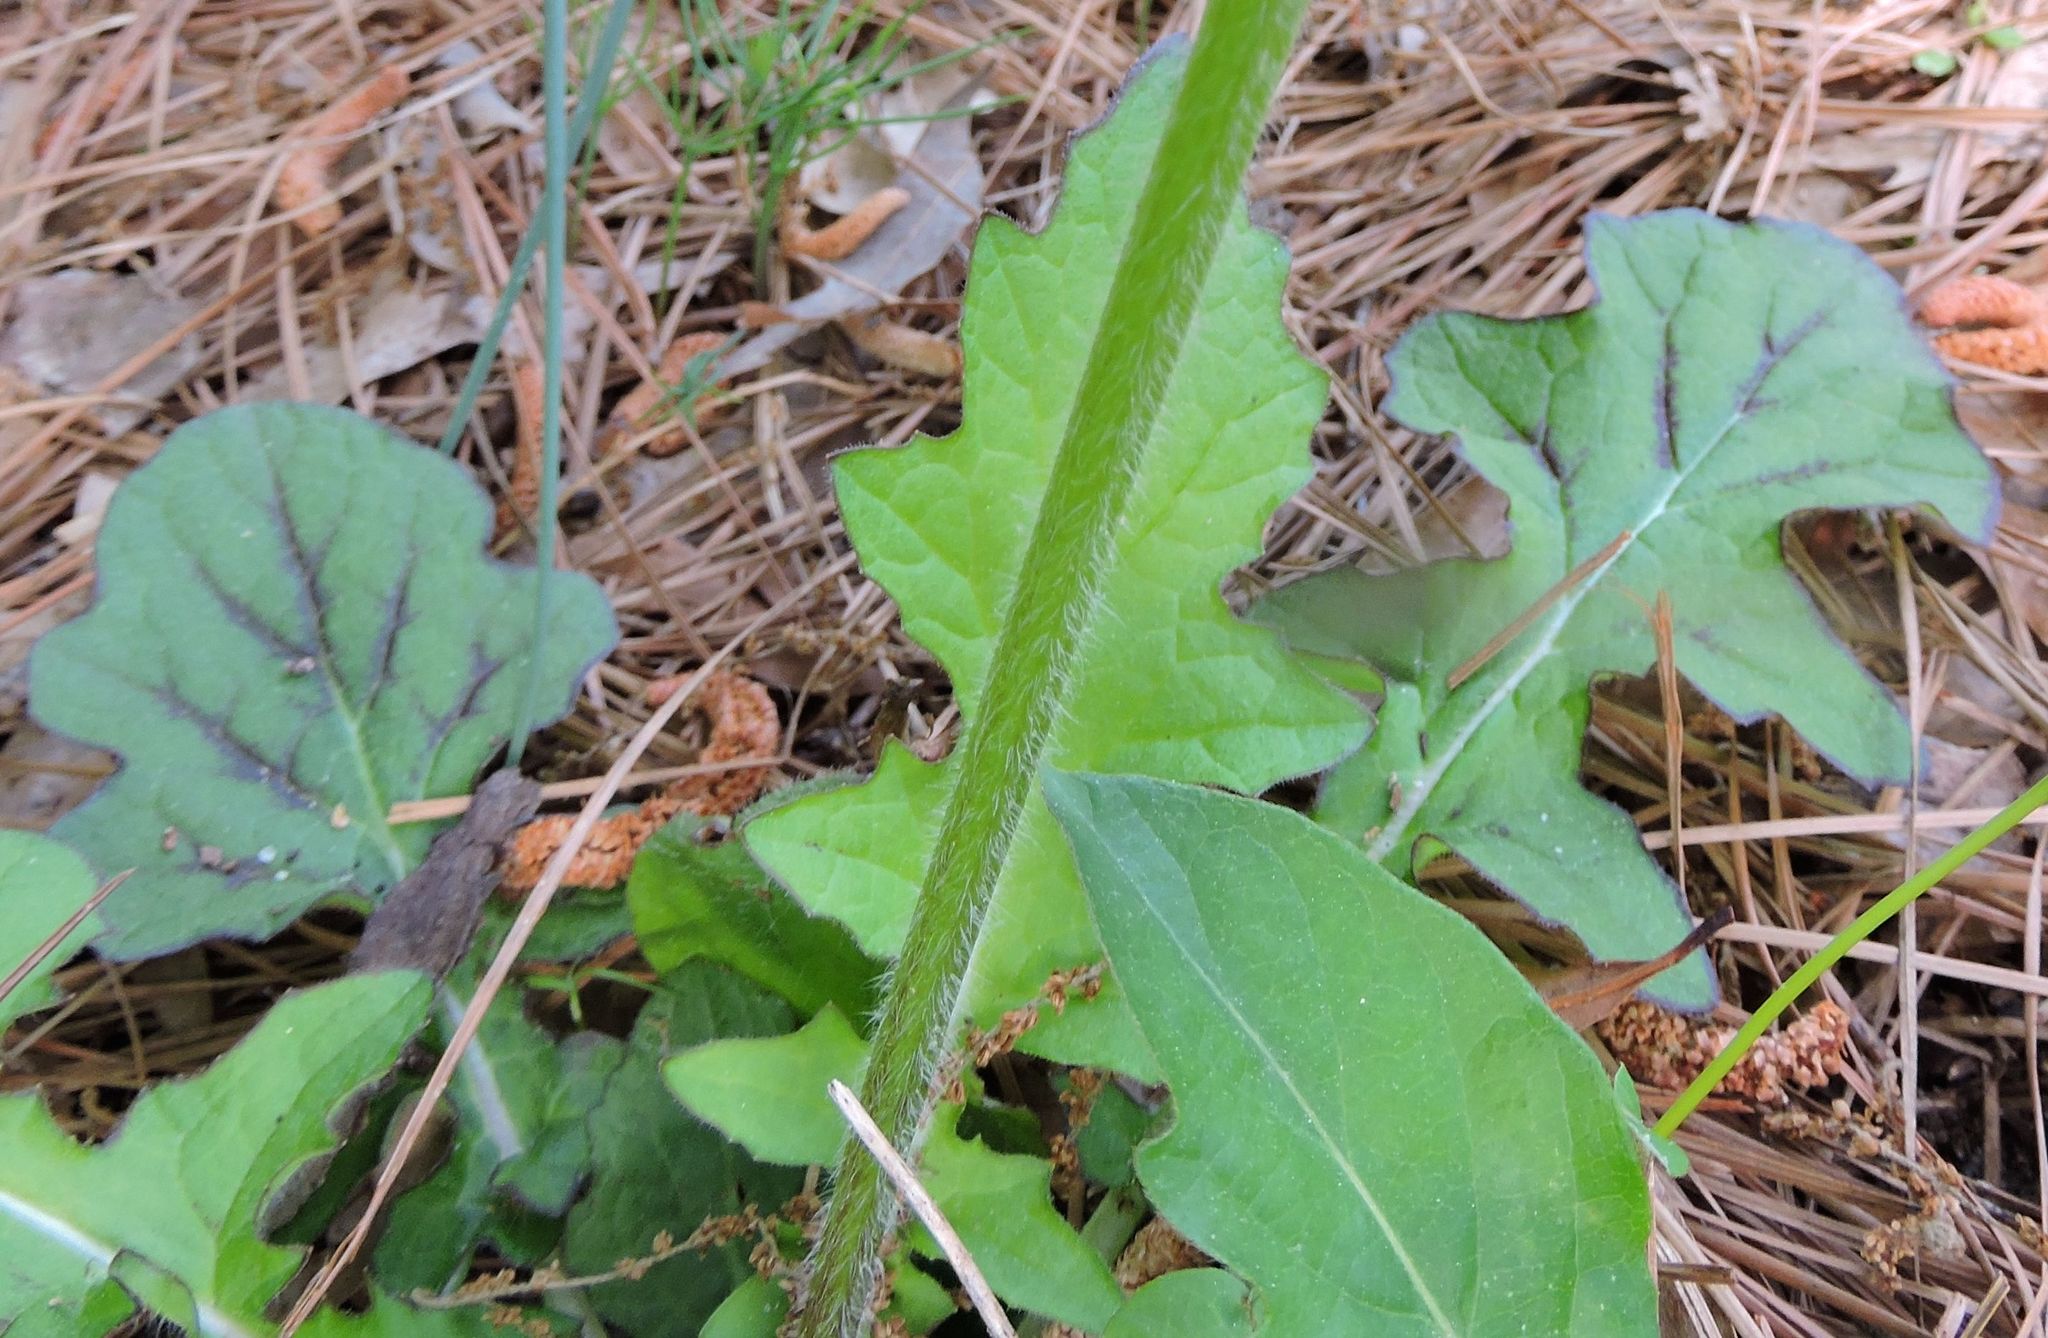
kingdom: Plantae
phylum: Tracheophyta
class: Magnoliopsida
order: Lamiales
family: Lamiaceae
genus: Salvia
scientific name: Salvia lyrata
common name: Cancerweed
